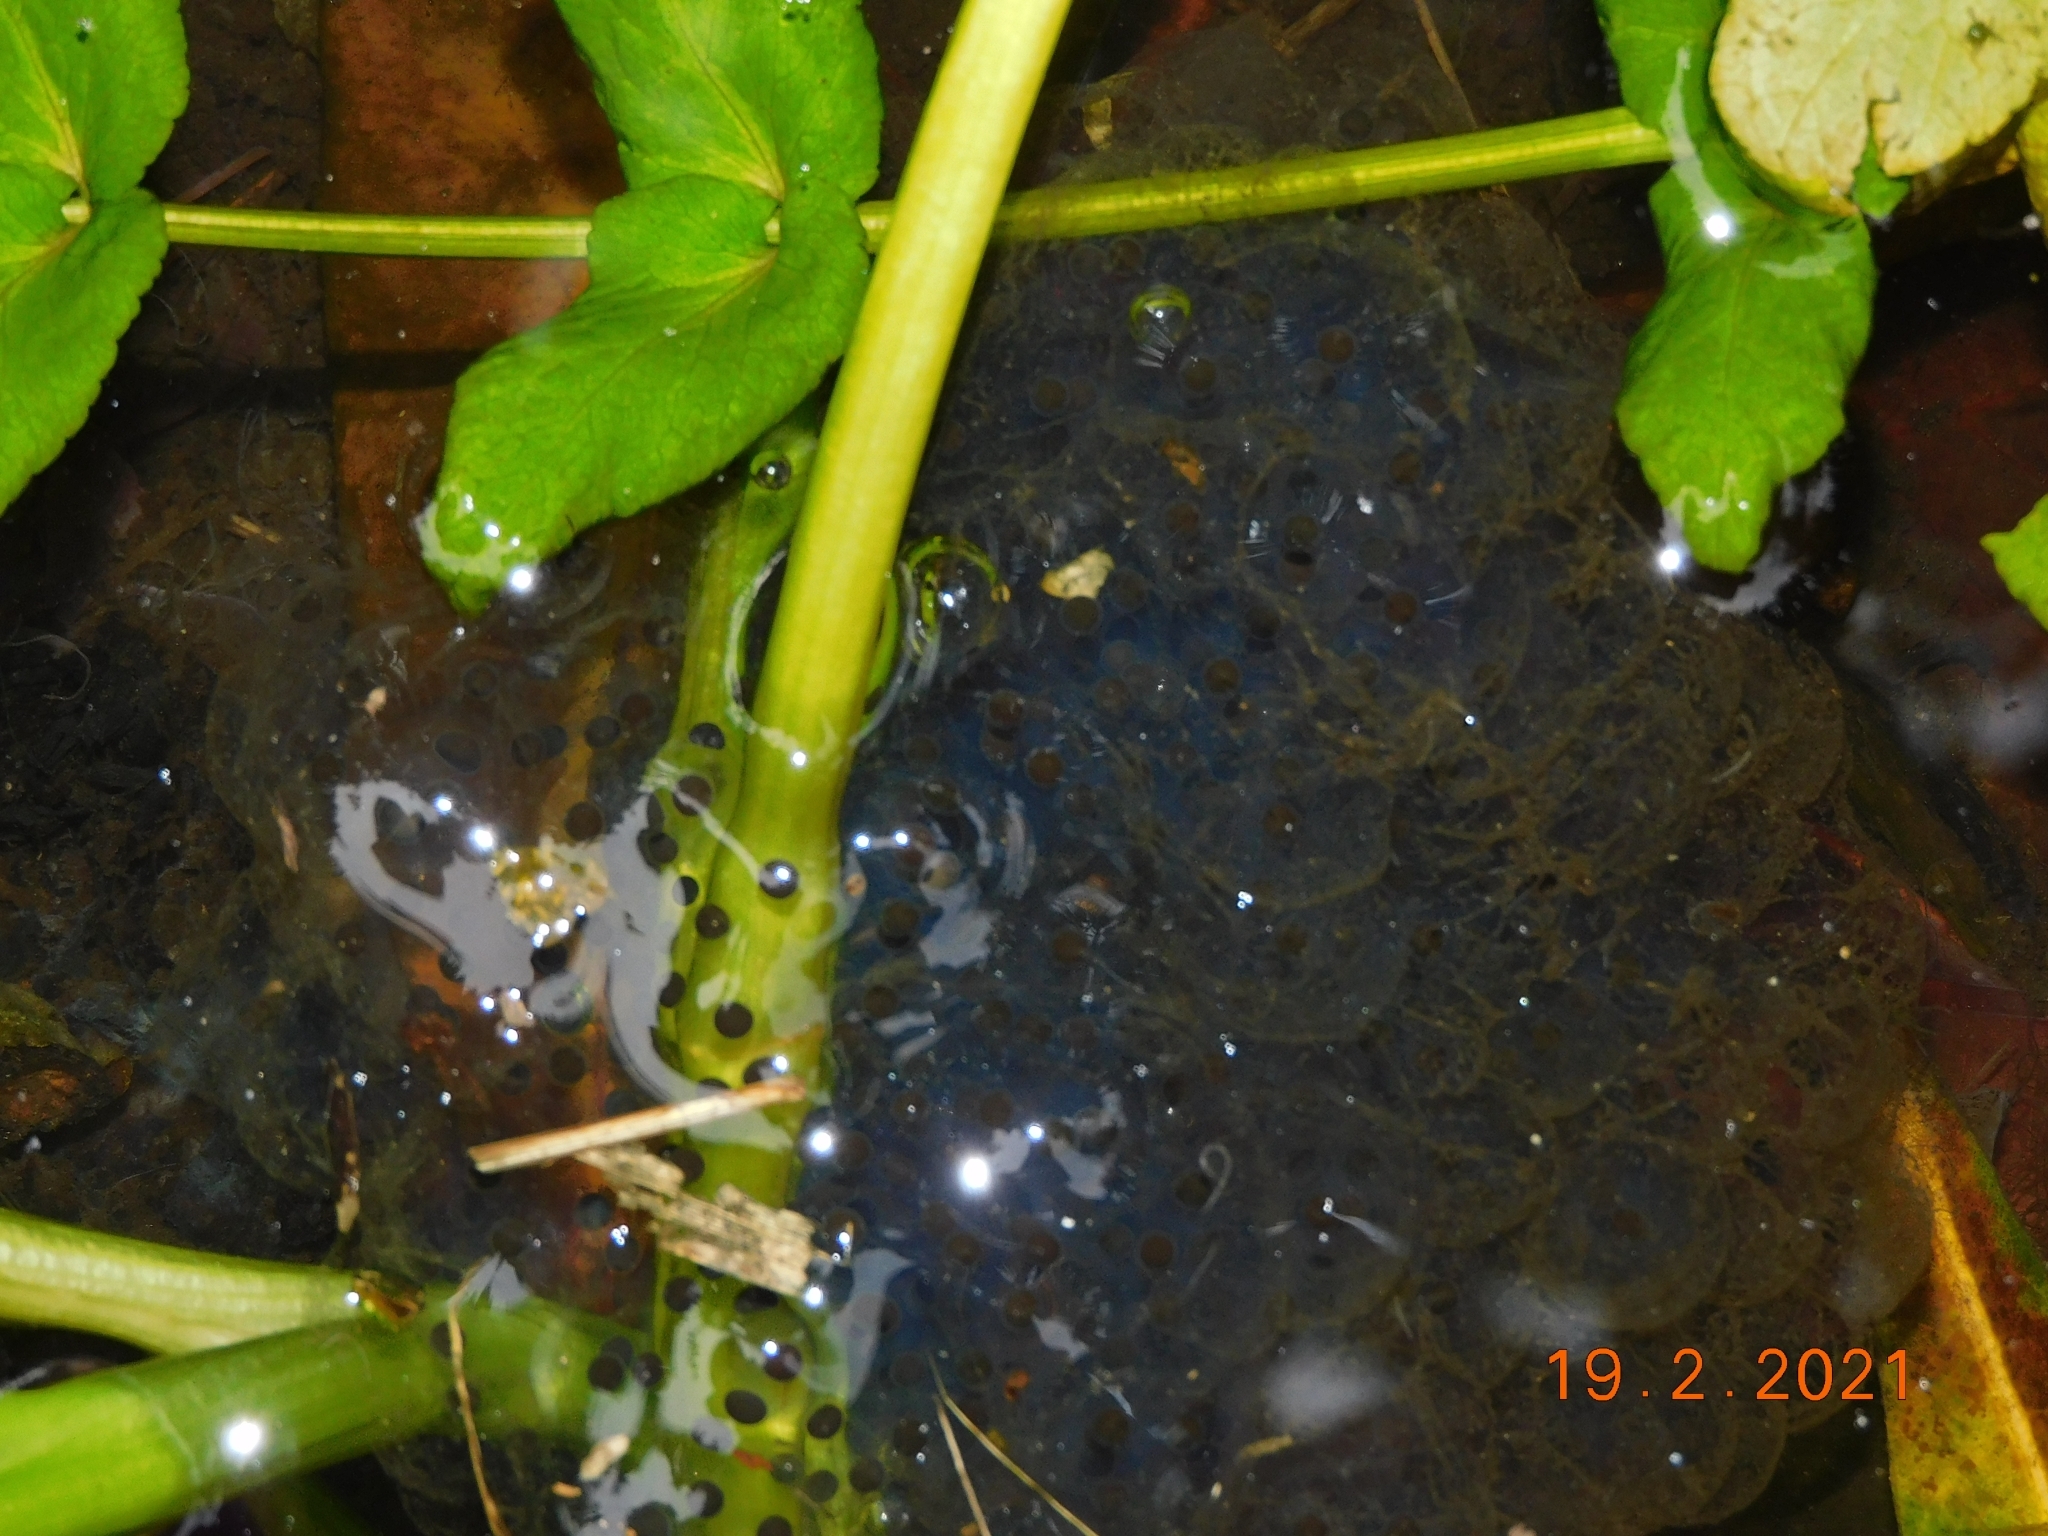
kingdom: Animalia
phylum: Chordata
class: Amphibia
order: Anura
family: Ranidae
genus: Rana
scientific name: Rana dalmatina
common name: Agile frog
